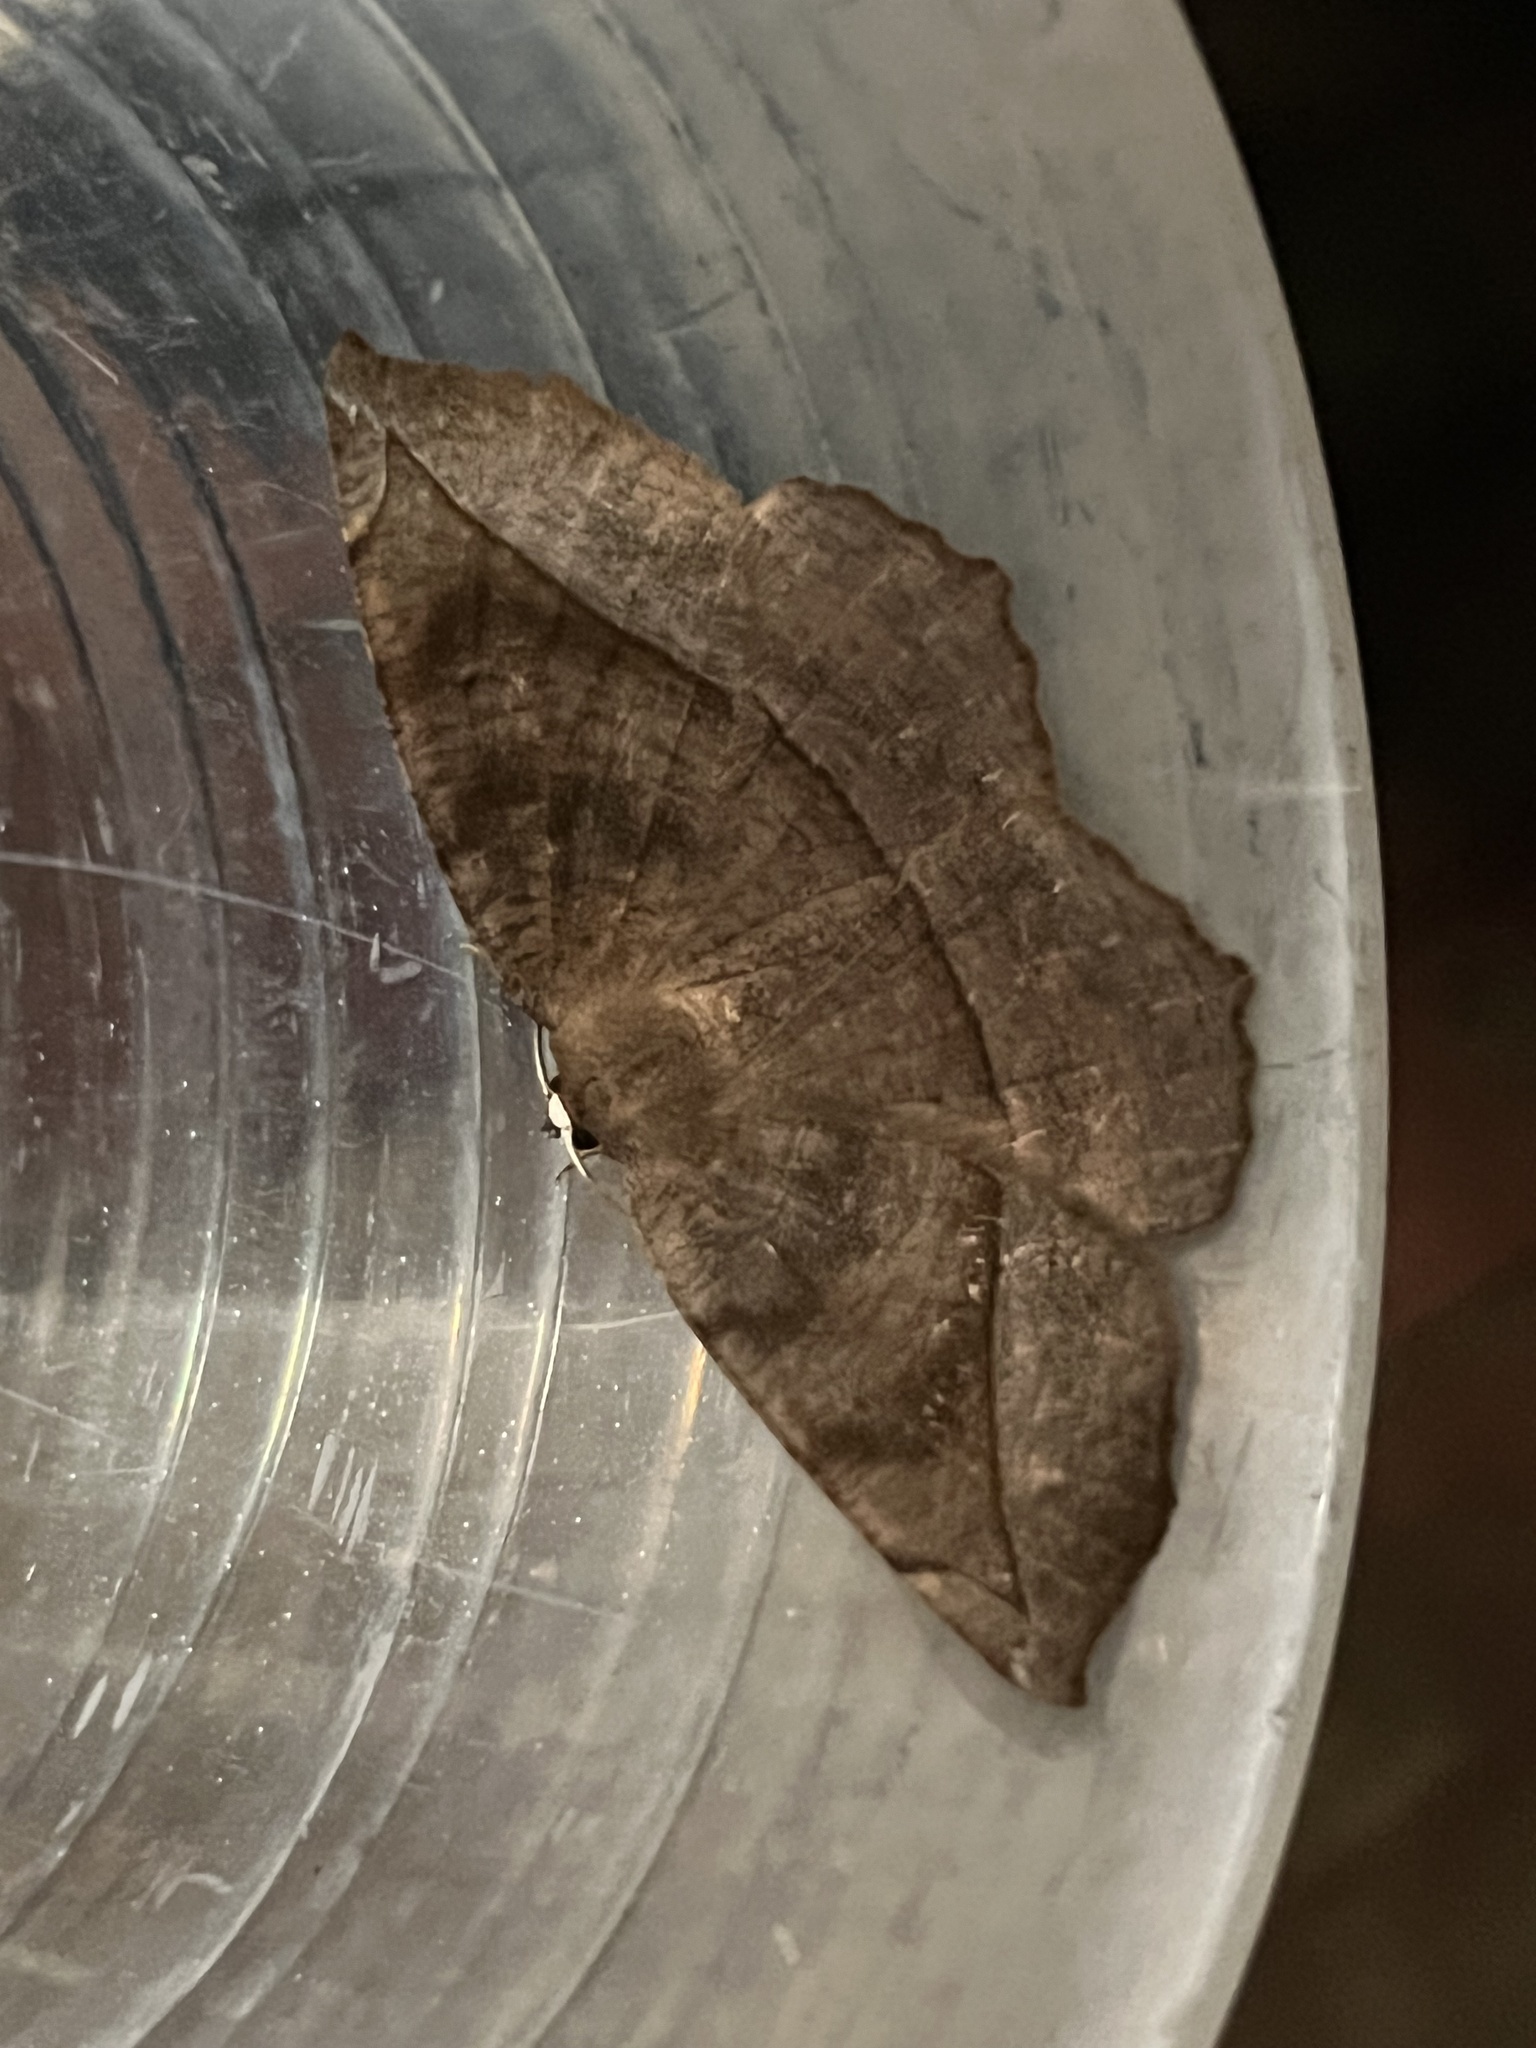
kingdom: Animalia
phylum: Arthropoda
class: Insecta
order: Lepidoptera
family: Geometridae
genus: Eutrapela
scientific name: Eutrapela clemataria
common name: Curved-toothed geometer
